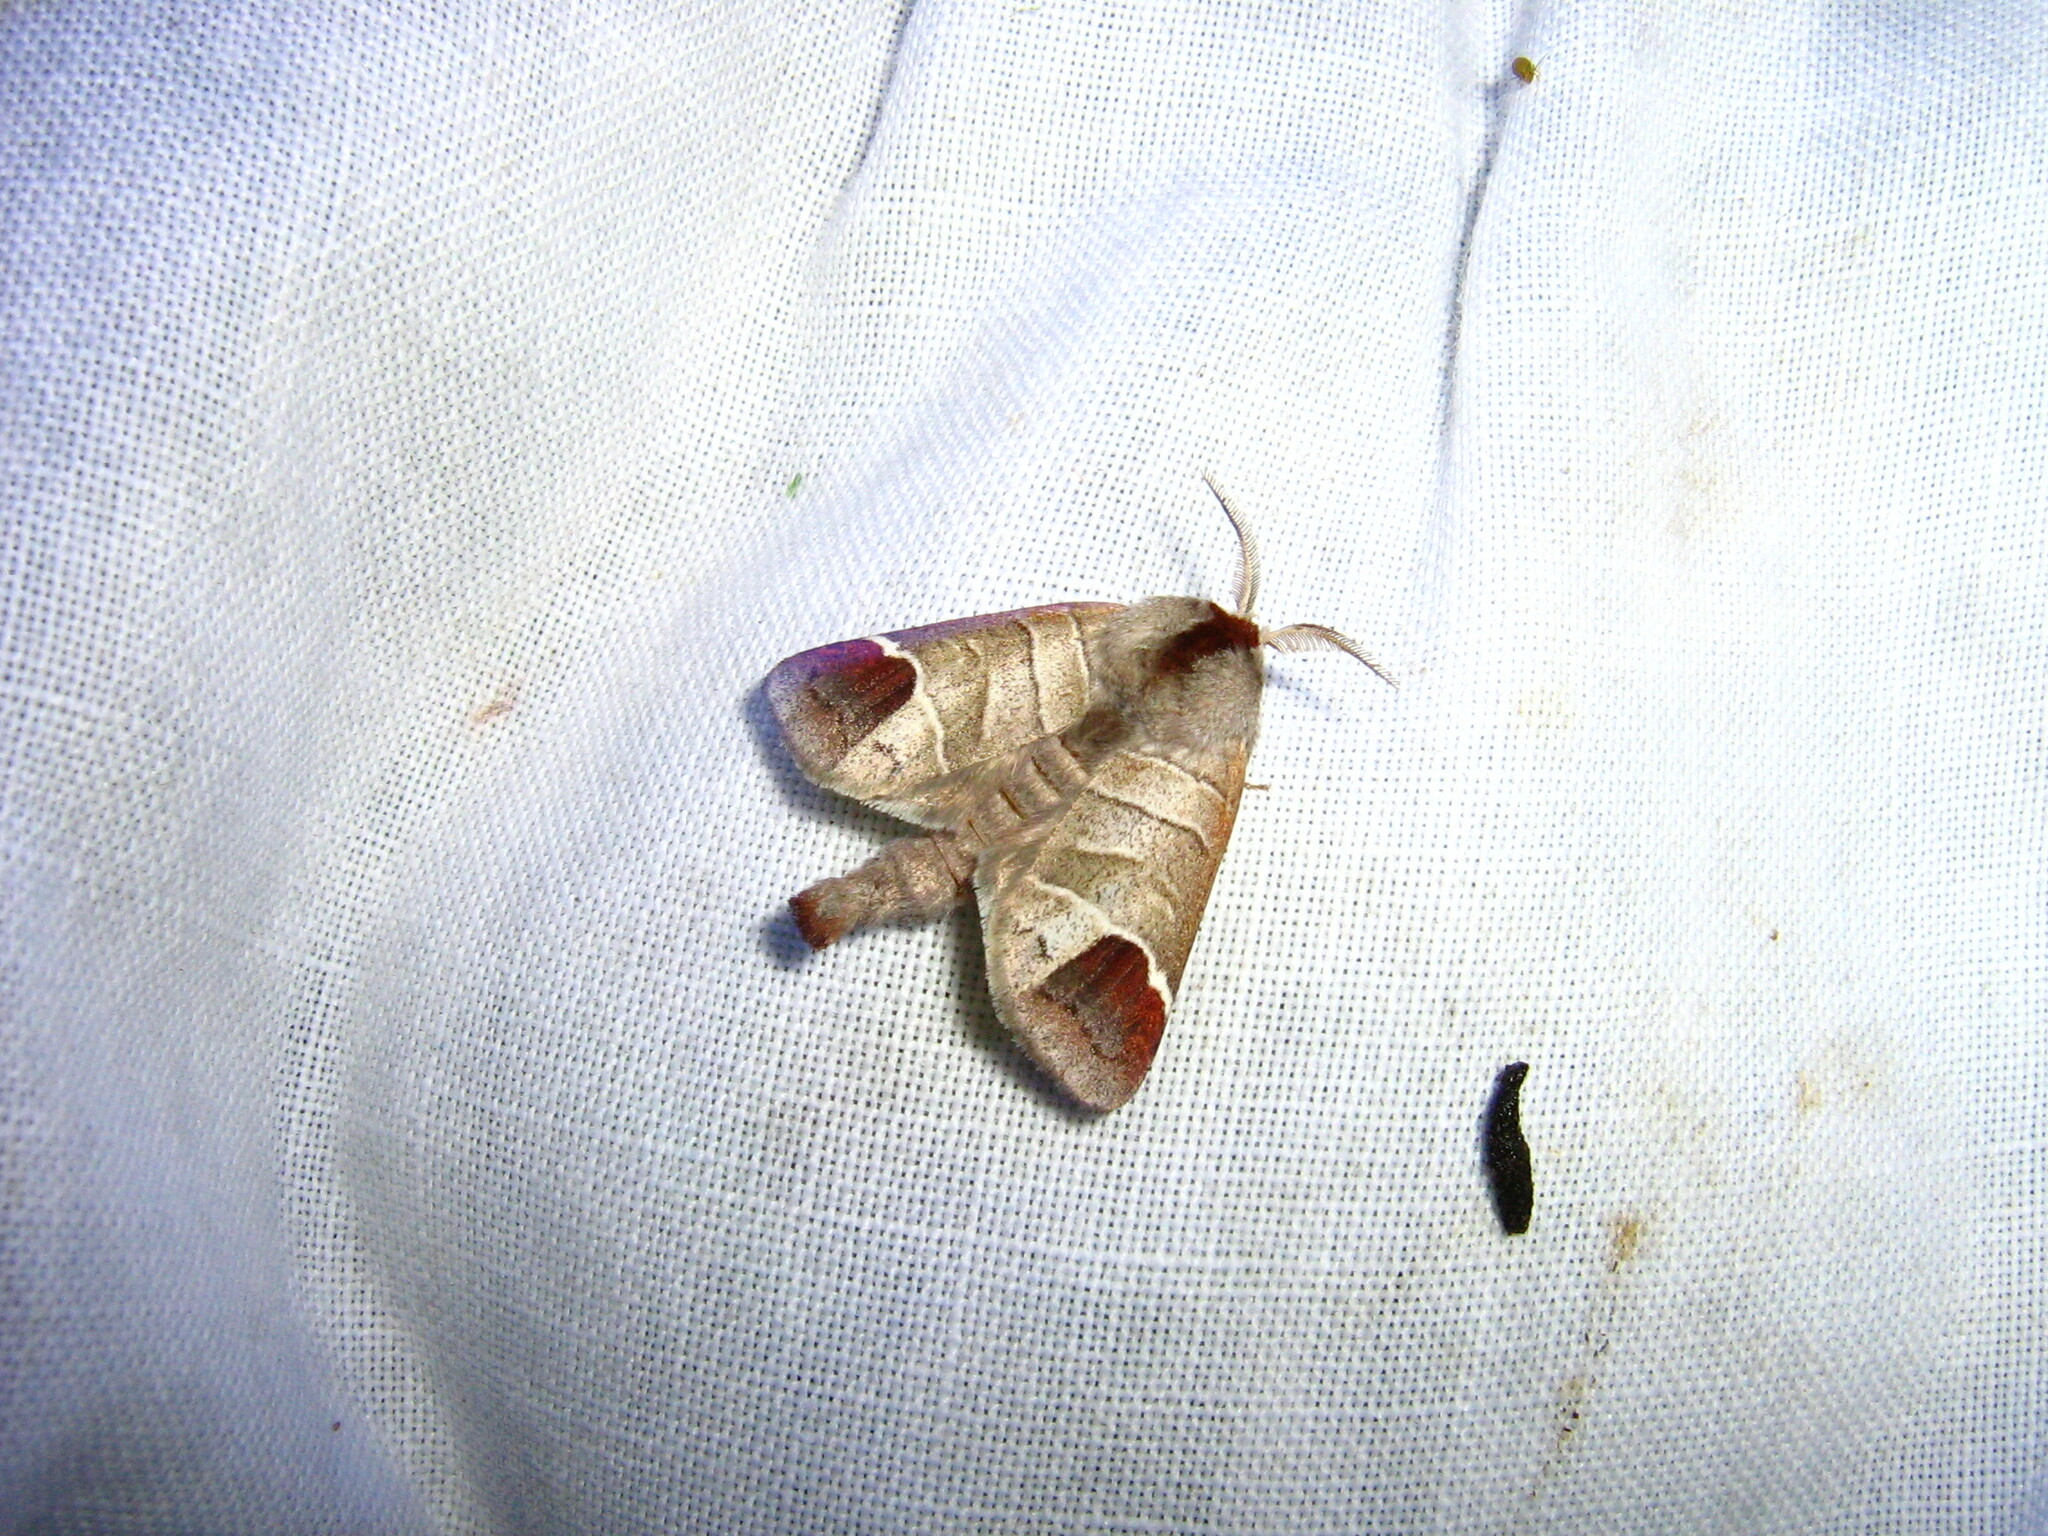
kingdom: Animalia
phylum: Arthropoda
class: Insecta
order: Lepidoptera
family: Notodontidae
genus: Clostera
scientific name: Clostera curtula
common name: Chocolate-tip
